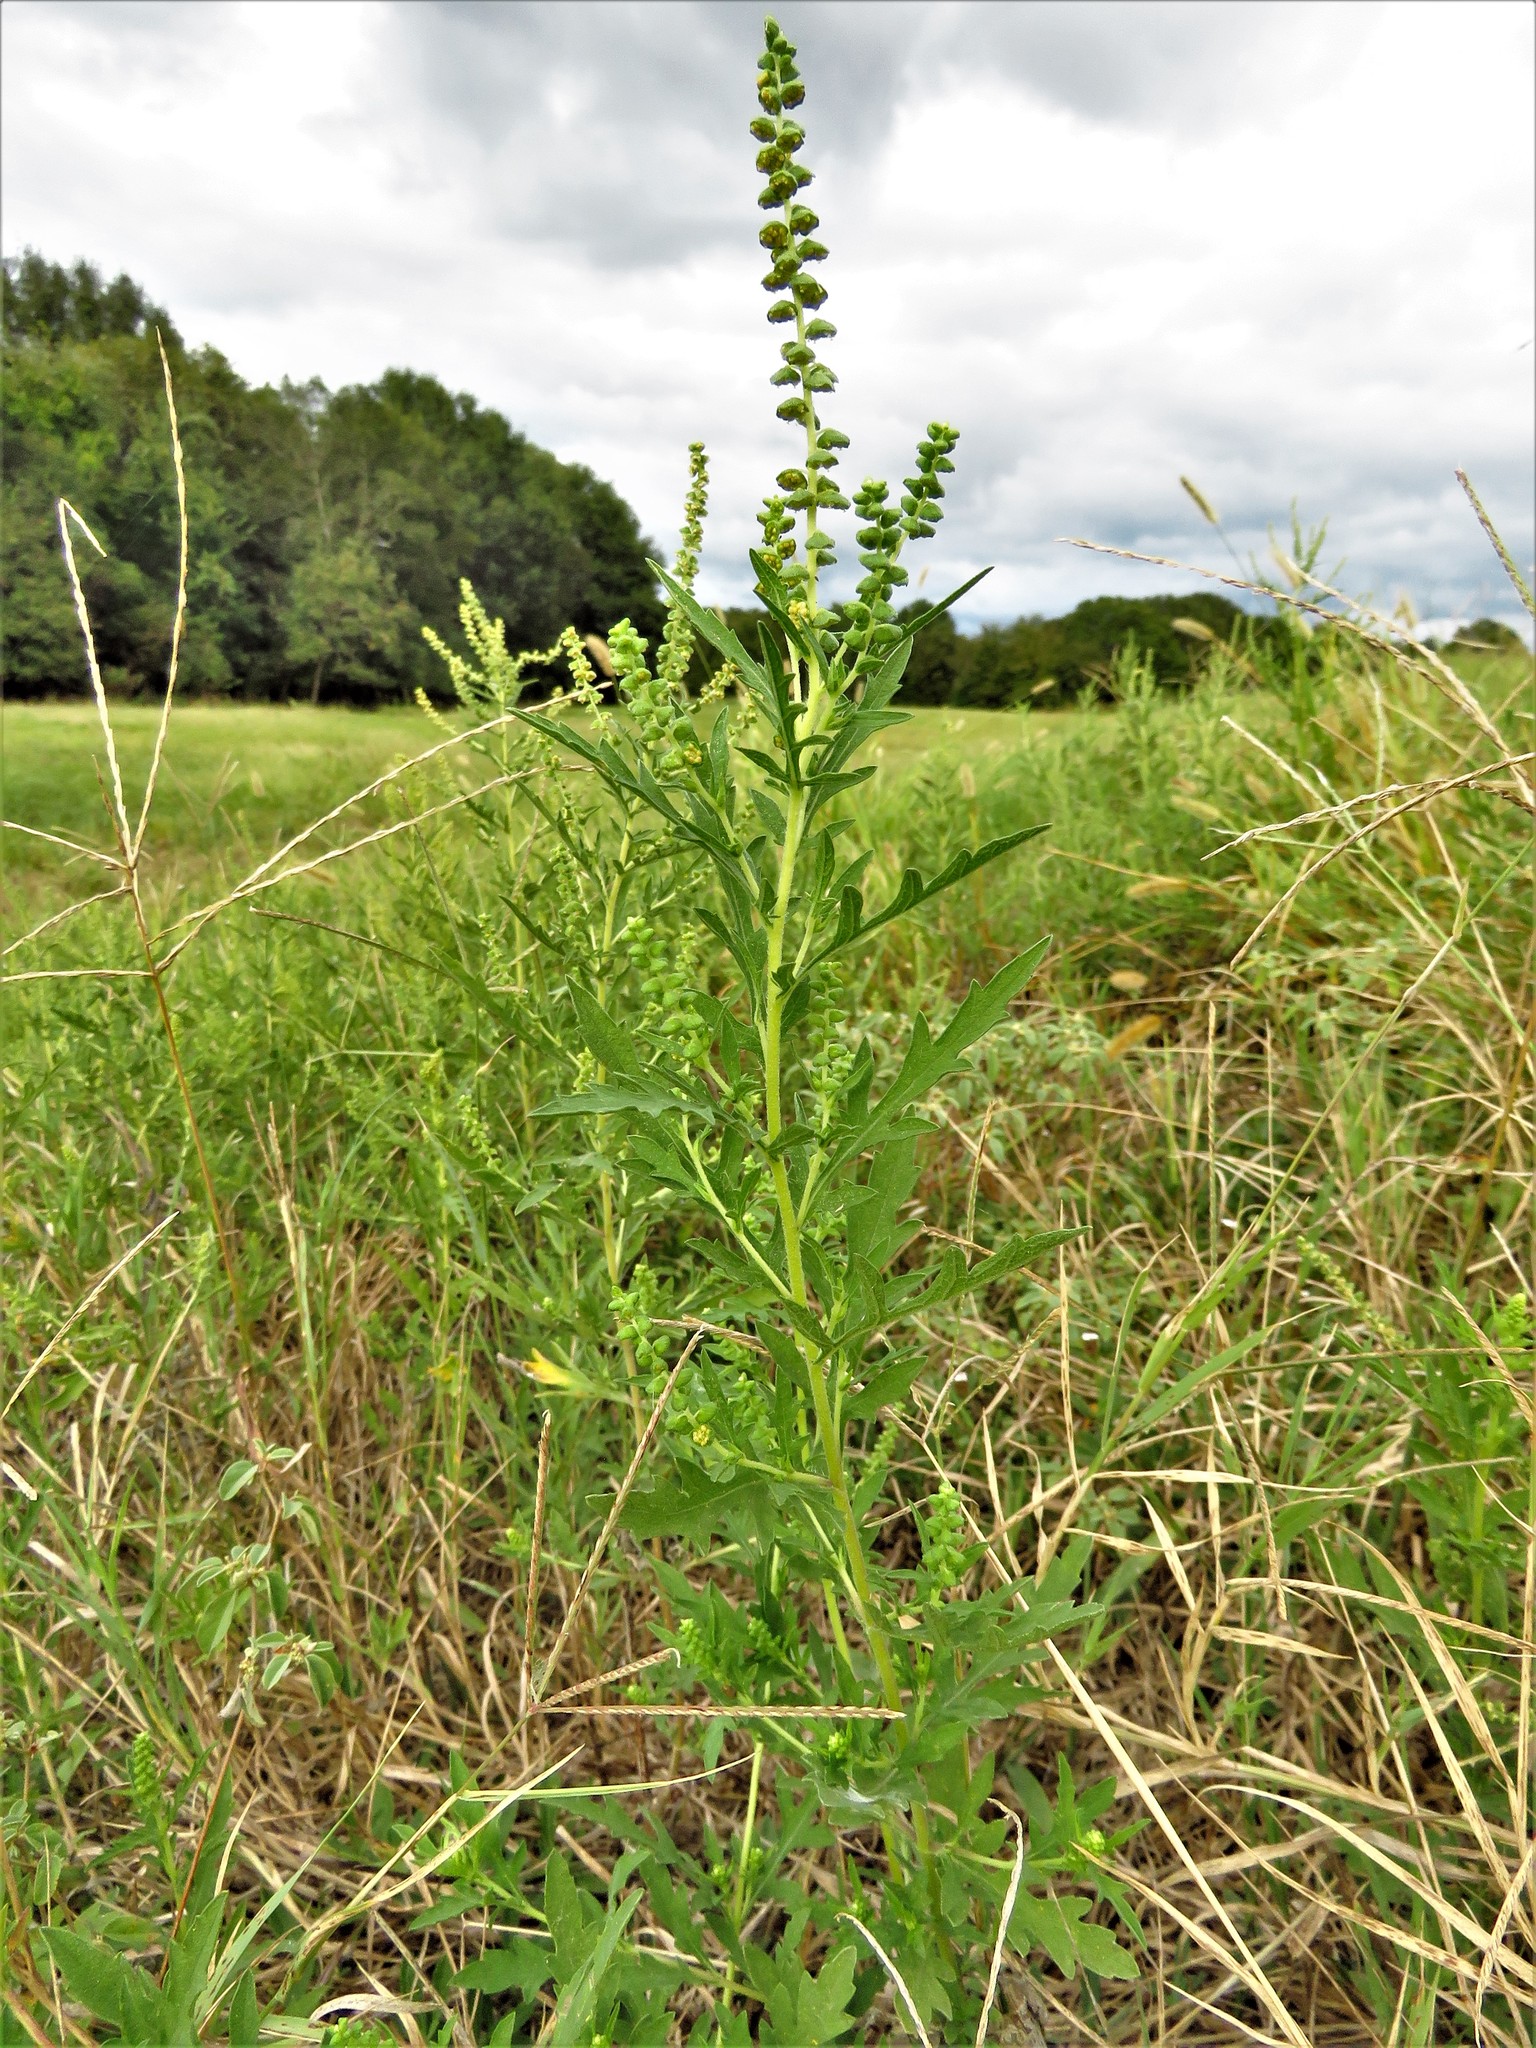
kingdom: Plantae
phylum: Tracheophyta
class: Magnoliopsida
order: Asterales
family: Asteraceae
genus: Ambrosia
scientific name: Ambrosia psilostachya
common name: Perennial ragweed
